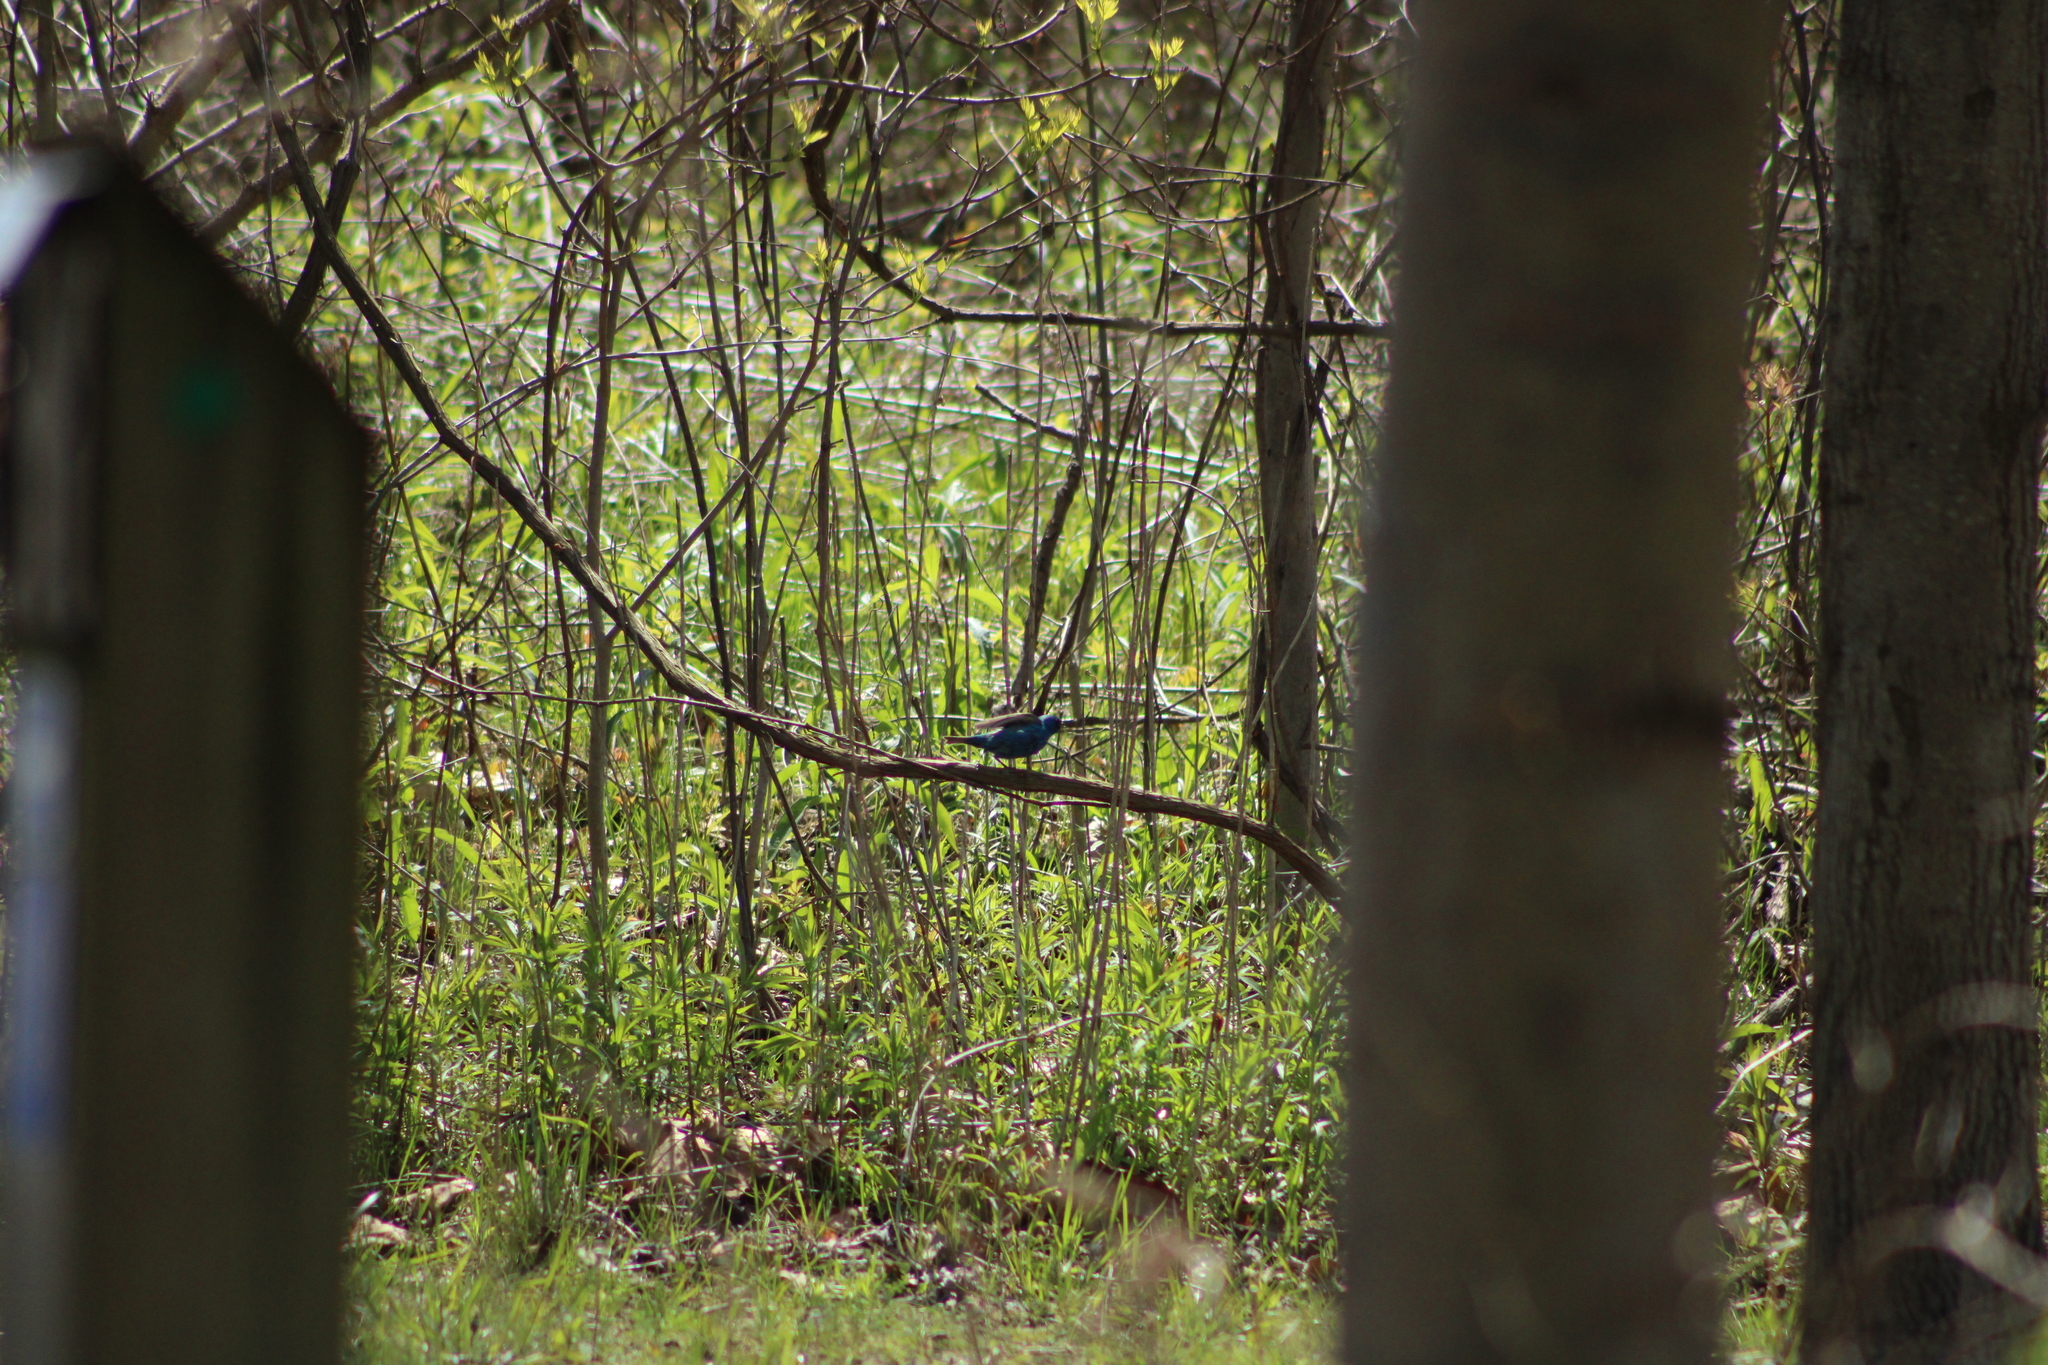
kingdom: Animalia
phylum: Chordata
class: Aves
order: Passeriformes
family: Cardinalidae
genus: Passerina
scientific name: Passerina cyanea
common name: Indigo bunting
